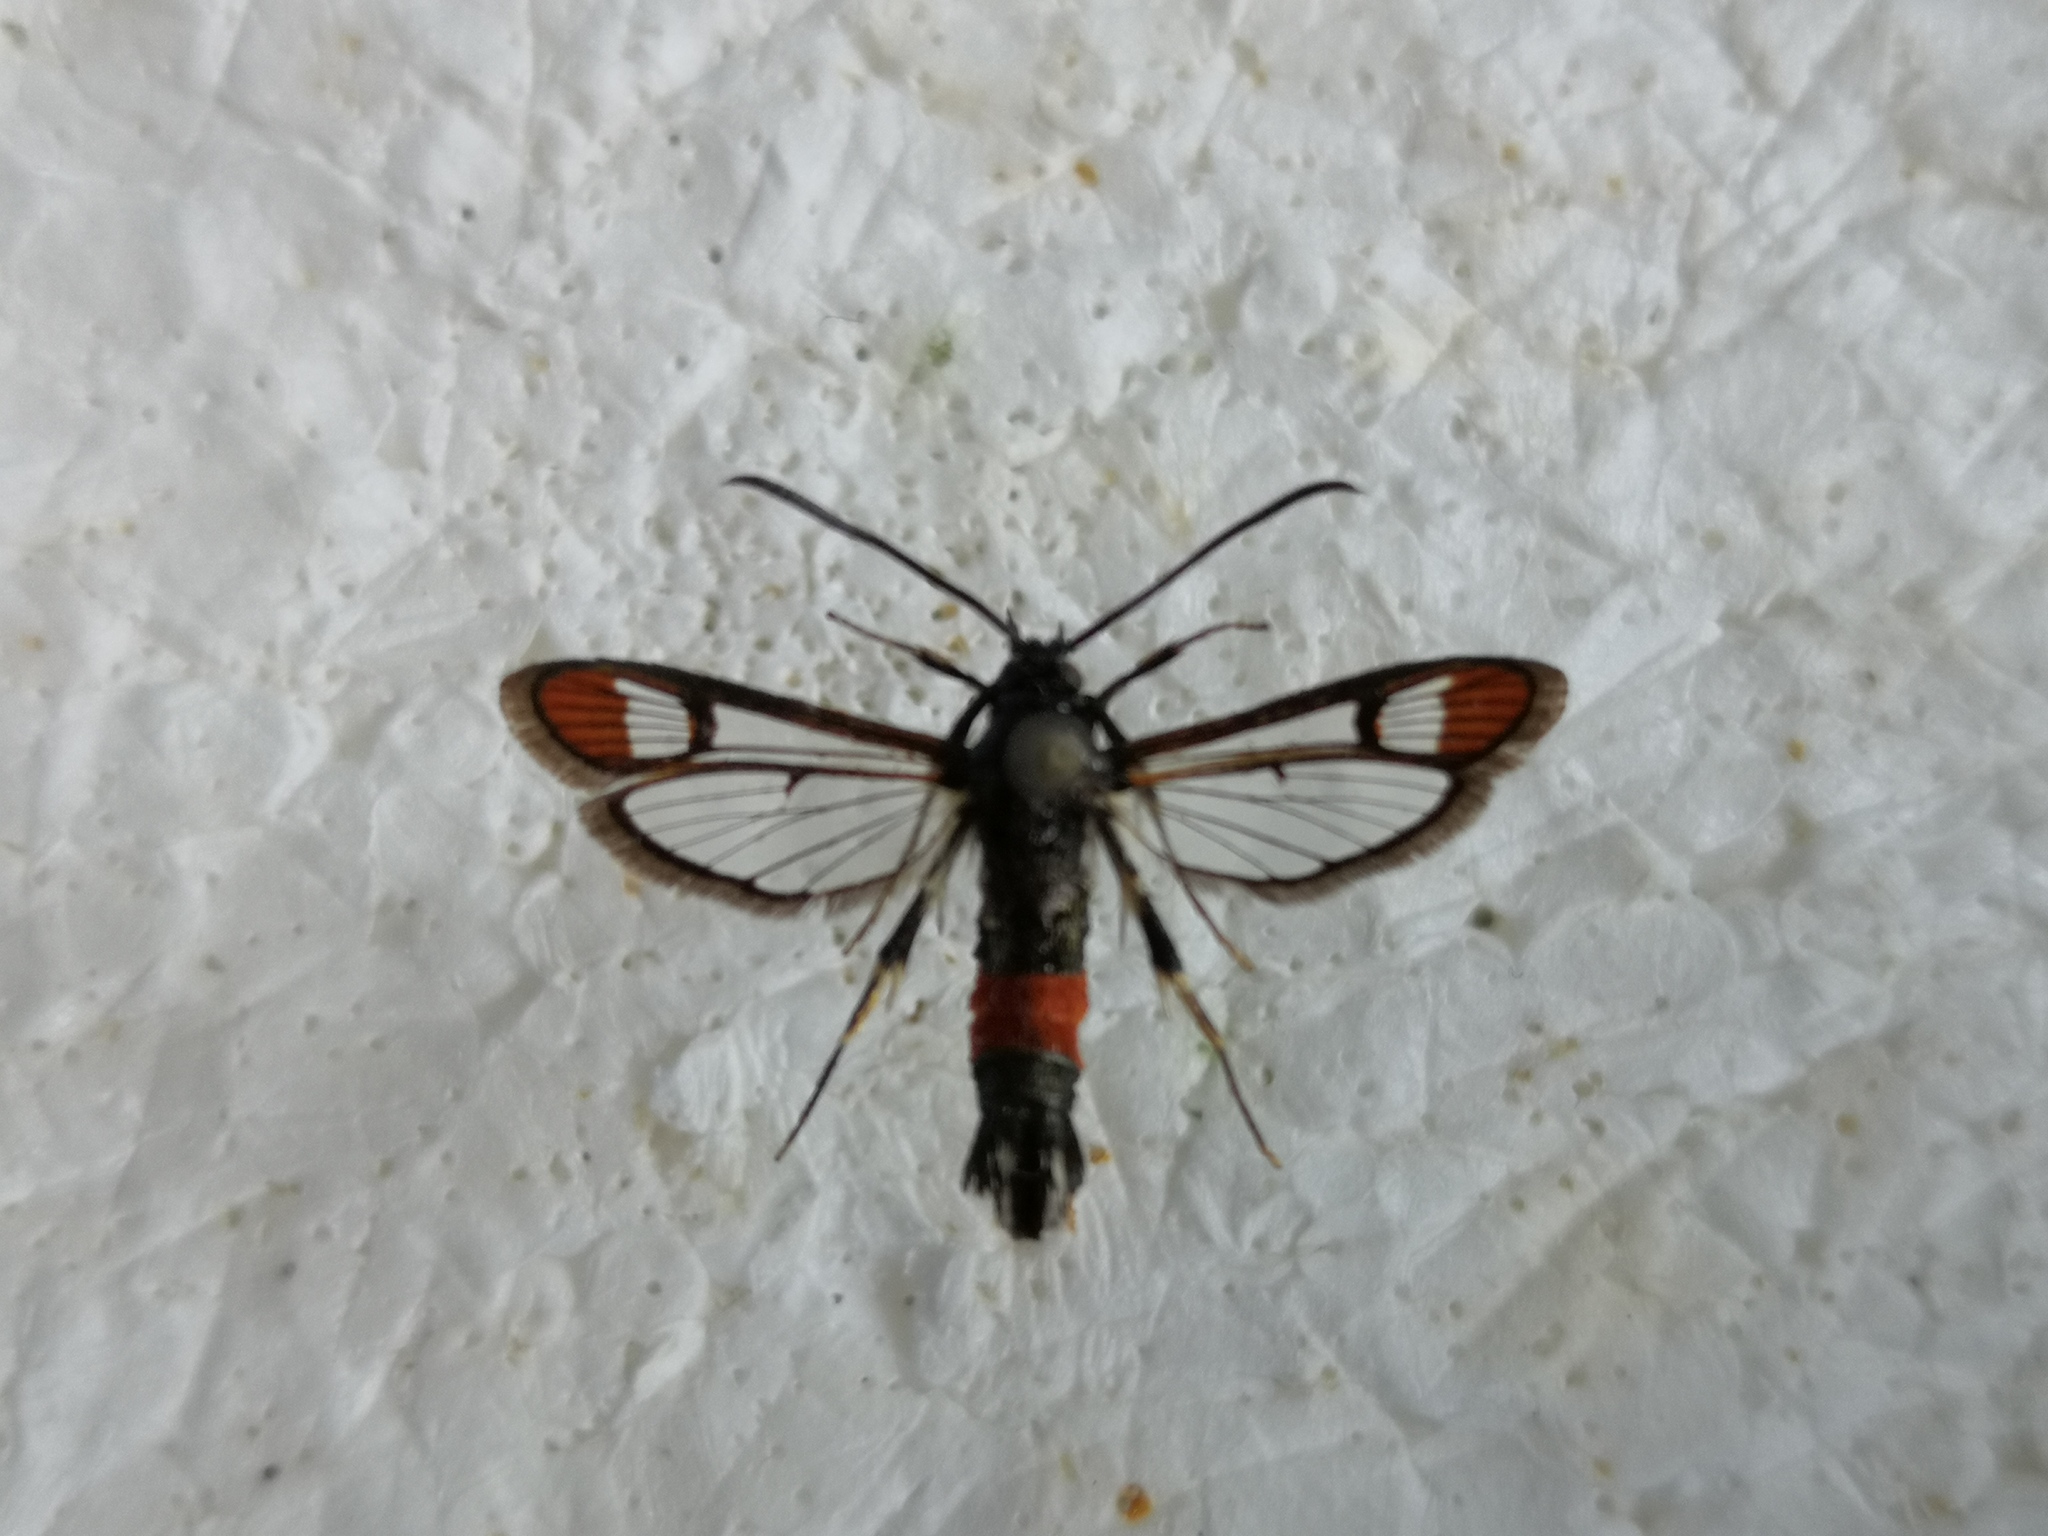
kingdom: Animalia
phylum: Arthropoda
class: Insecta
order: Lepidoptera
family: Sesiidae
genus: Synanthedon
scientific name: Synanthedon formicaeformis
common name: Red-tipped clearwing
